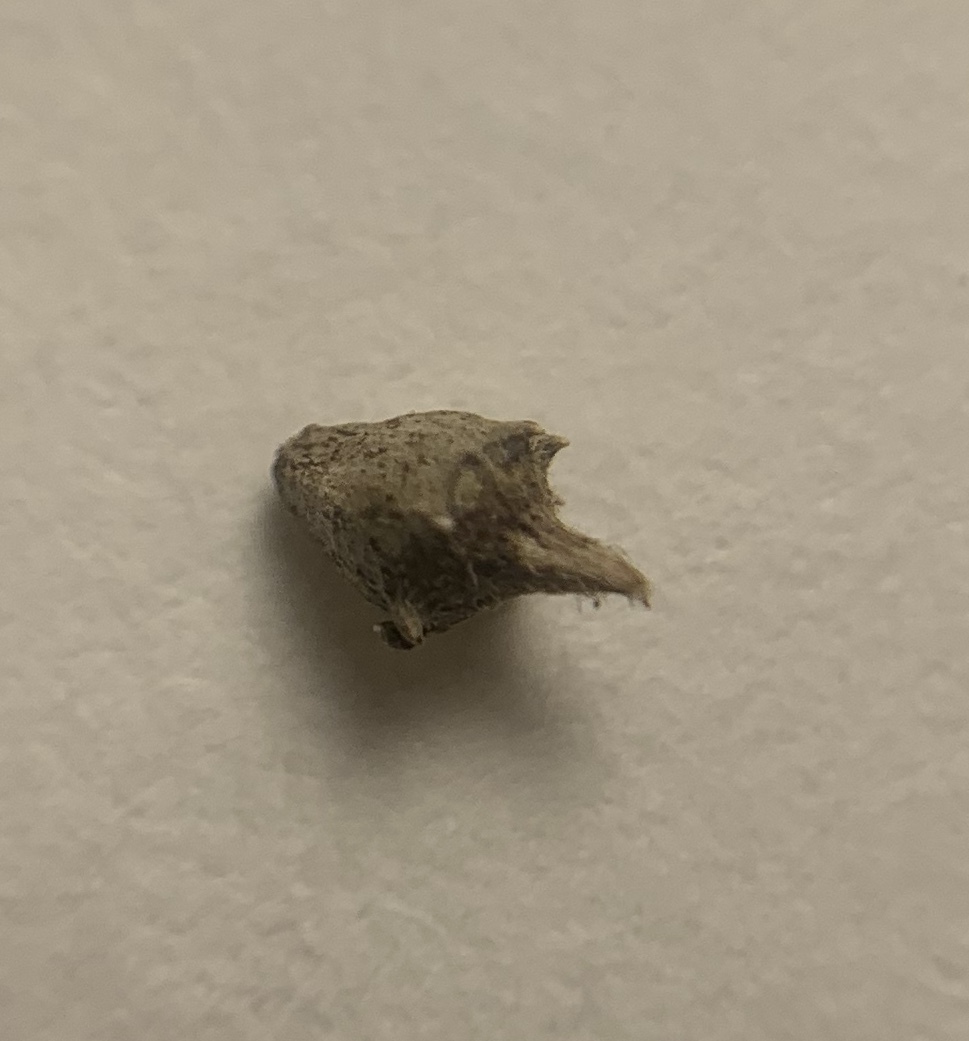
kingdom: Plantae
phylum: Tracheophyta
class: Magnoliopsida
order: Asterales
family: Asteraceae
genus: Ambrosia
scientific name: Ambrosia artemisiifolia
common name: Annual ragweed
